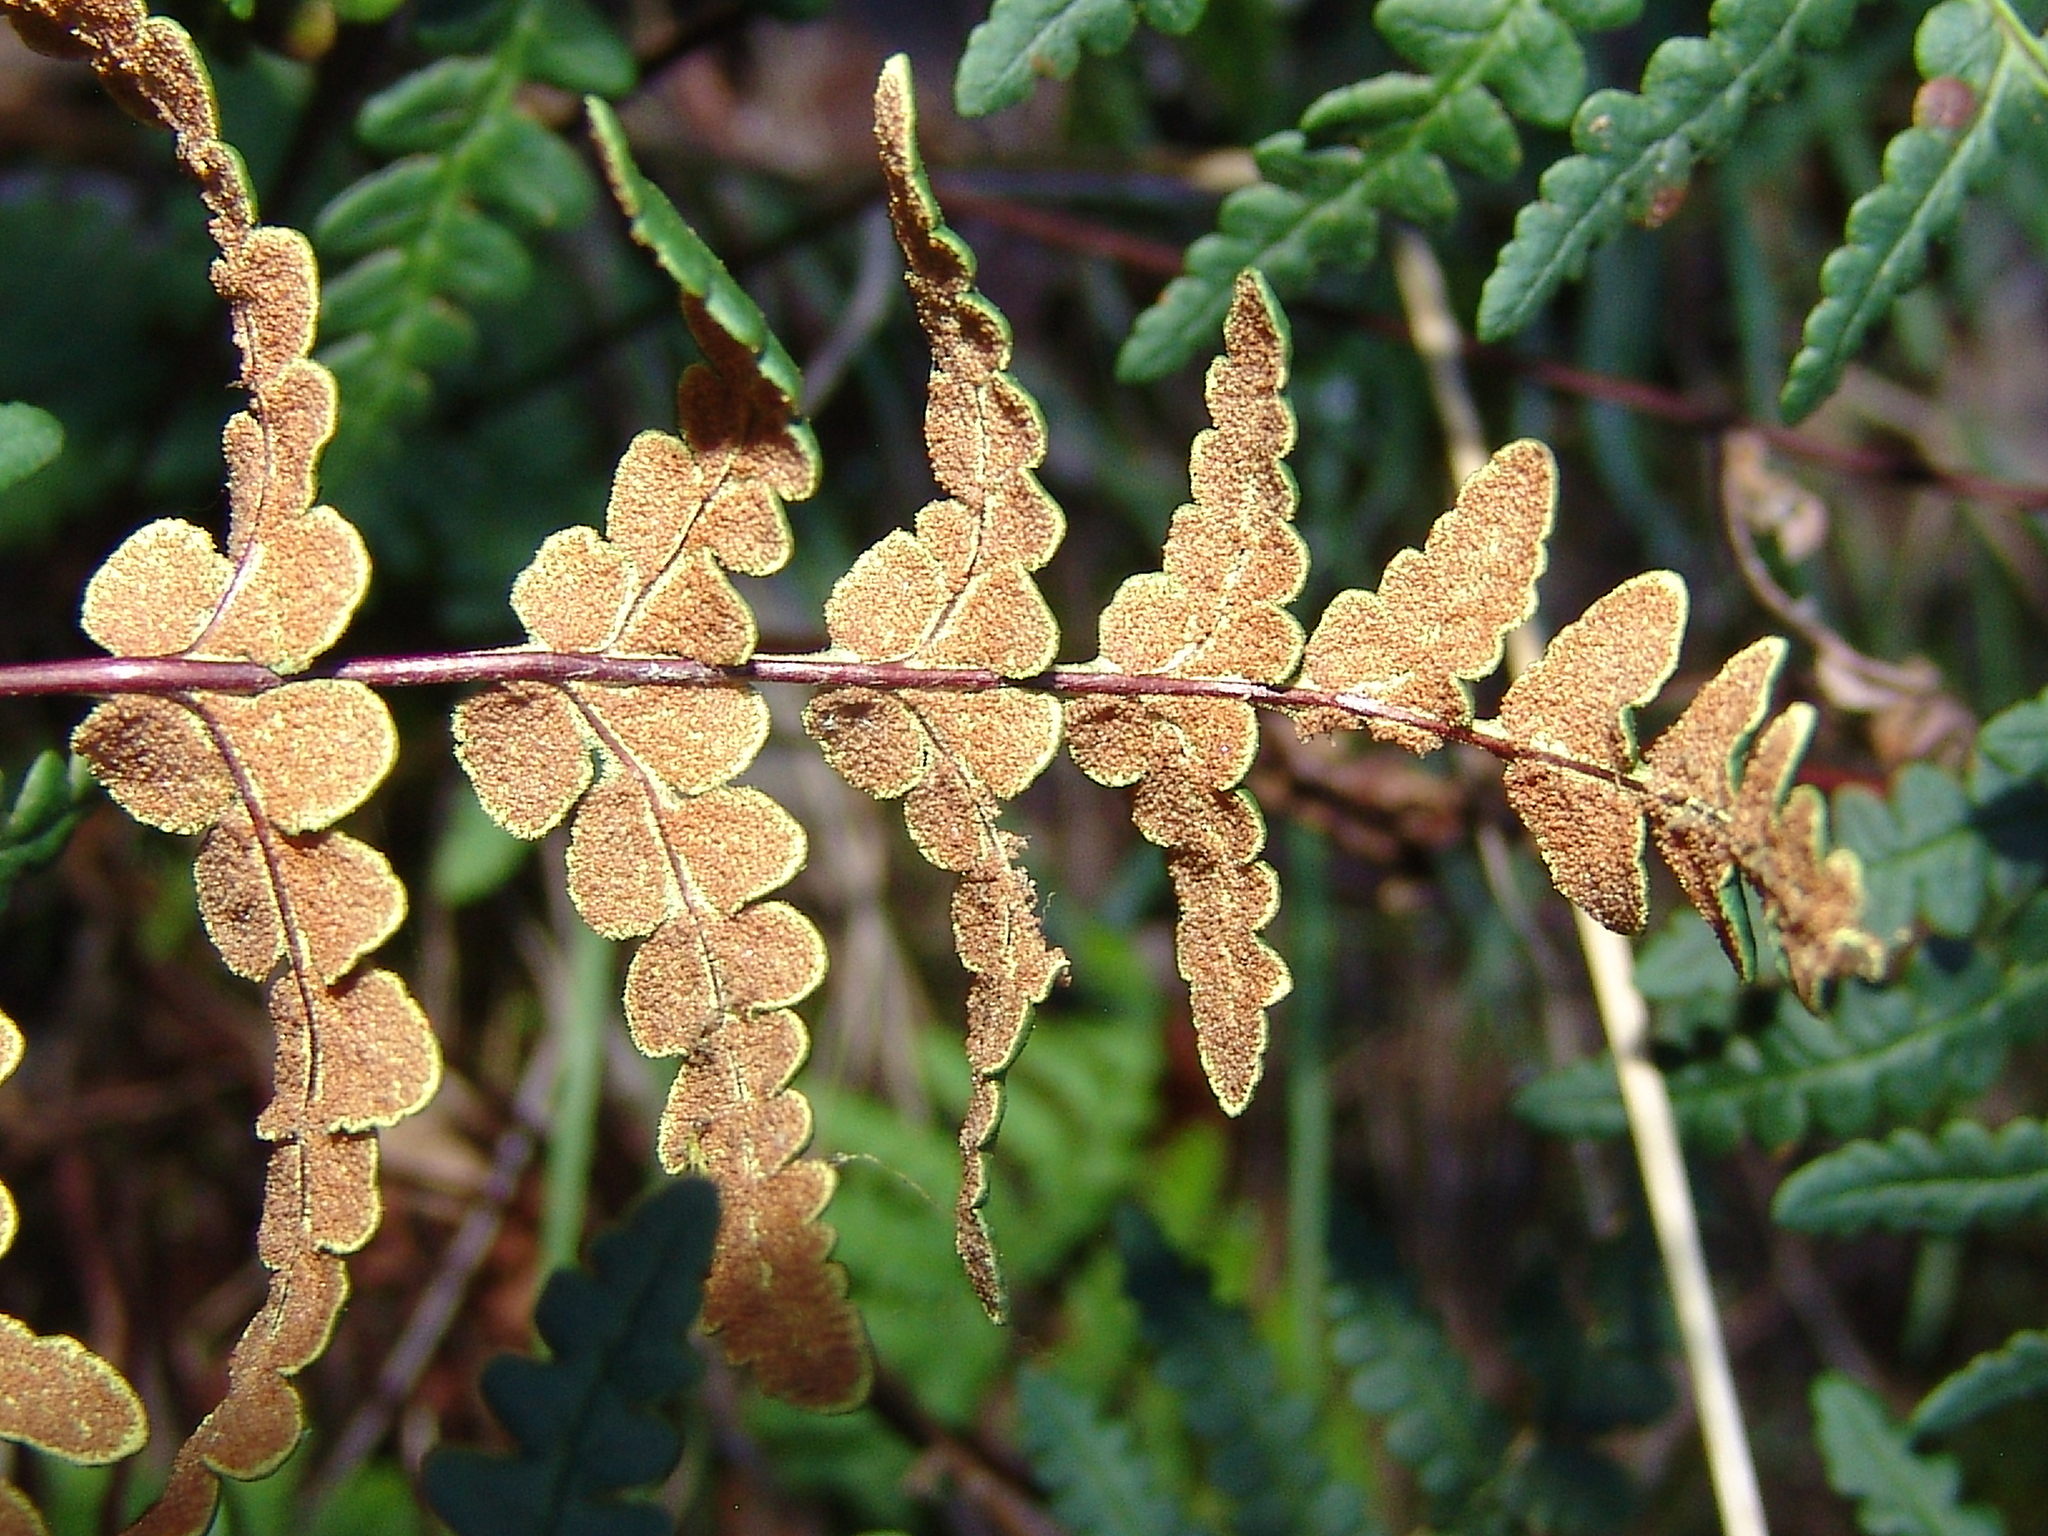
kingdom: Plantae
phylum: Tracheophyta
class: Polypodiopsida
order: Polypodiales
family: Pteridaceae
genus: Pentagramma
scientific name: Pentagramma triangularis
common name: Gold fern
